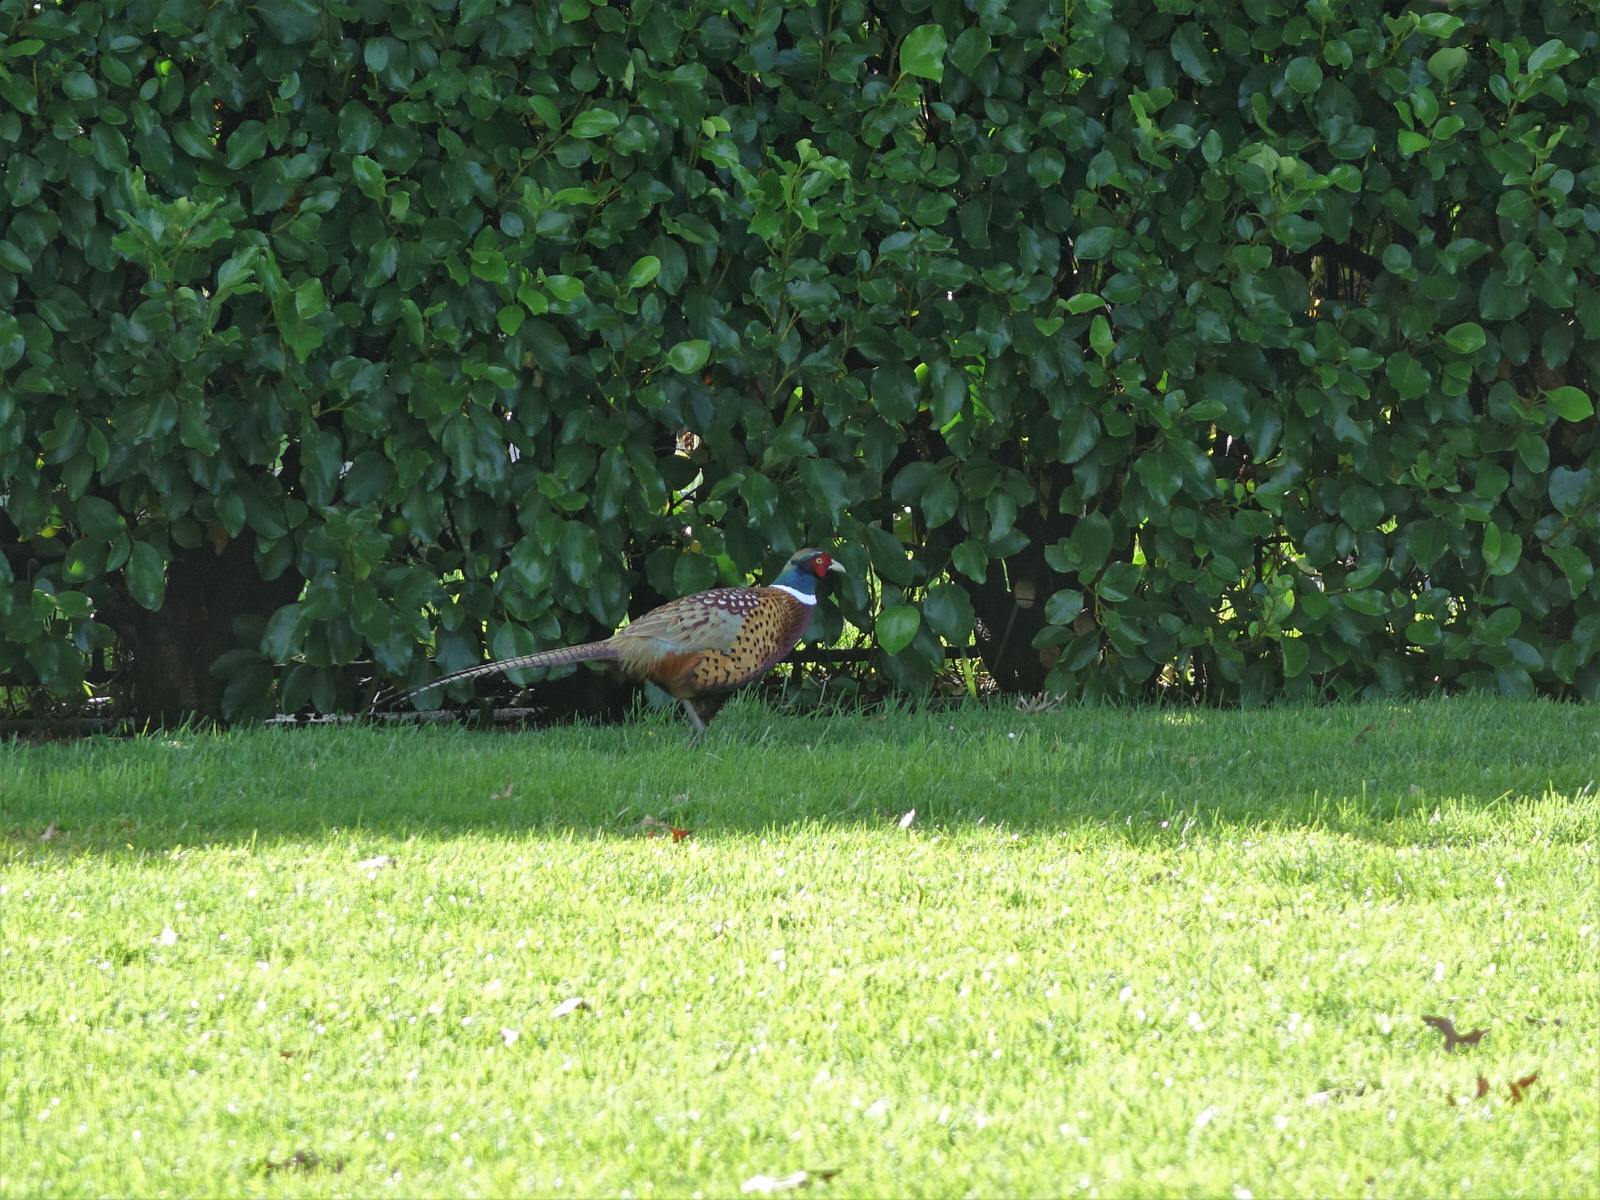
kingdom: Animalia
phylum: Chordata
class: Aves
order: Galliformes
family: Phasianidae
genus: Phasianus
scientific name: Phasianus colchicus
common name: Common pheasant
